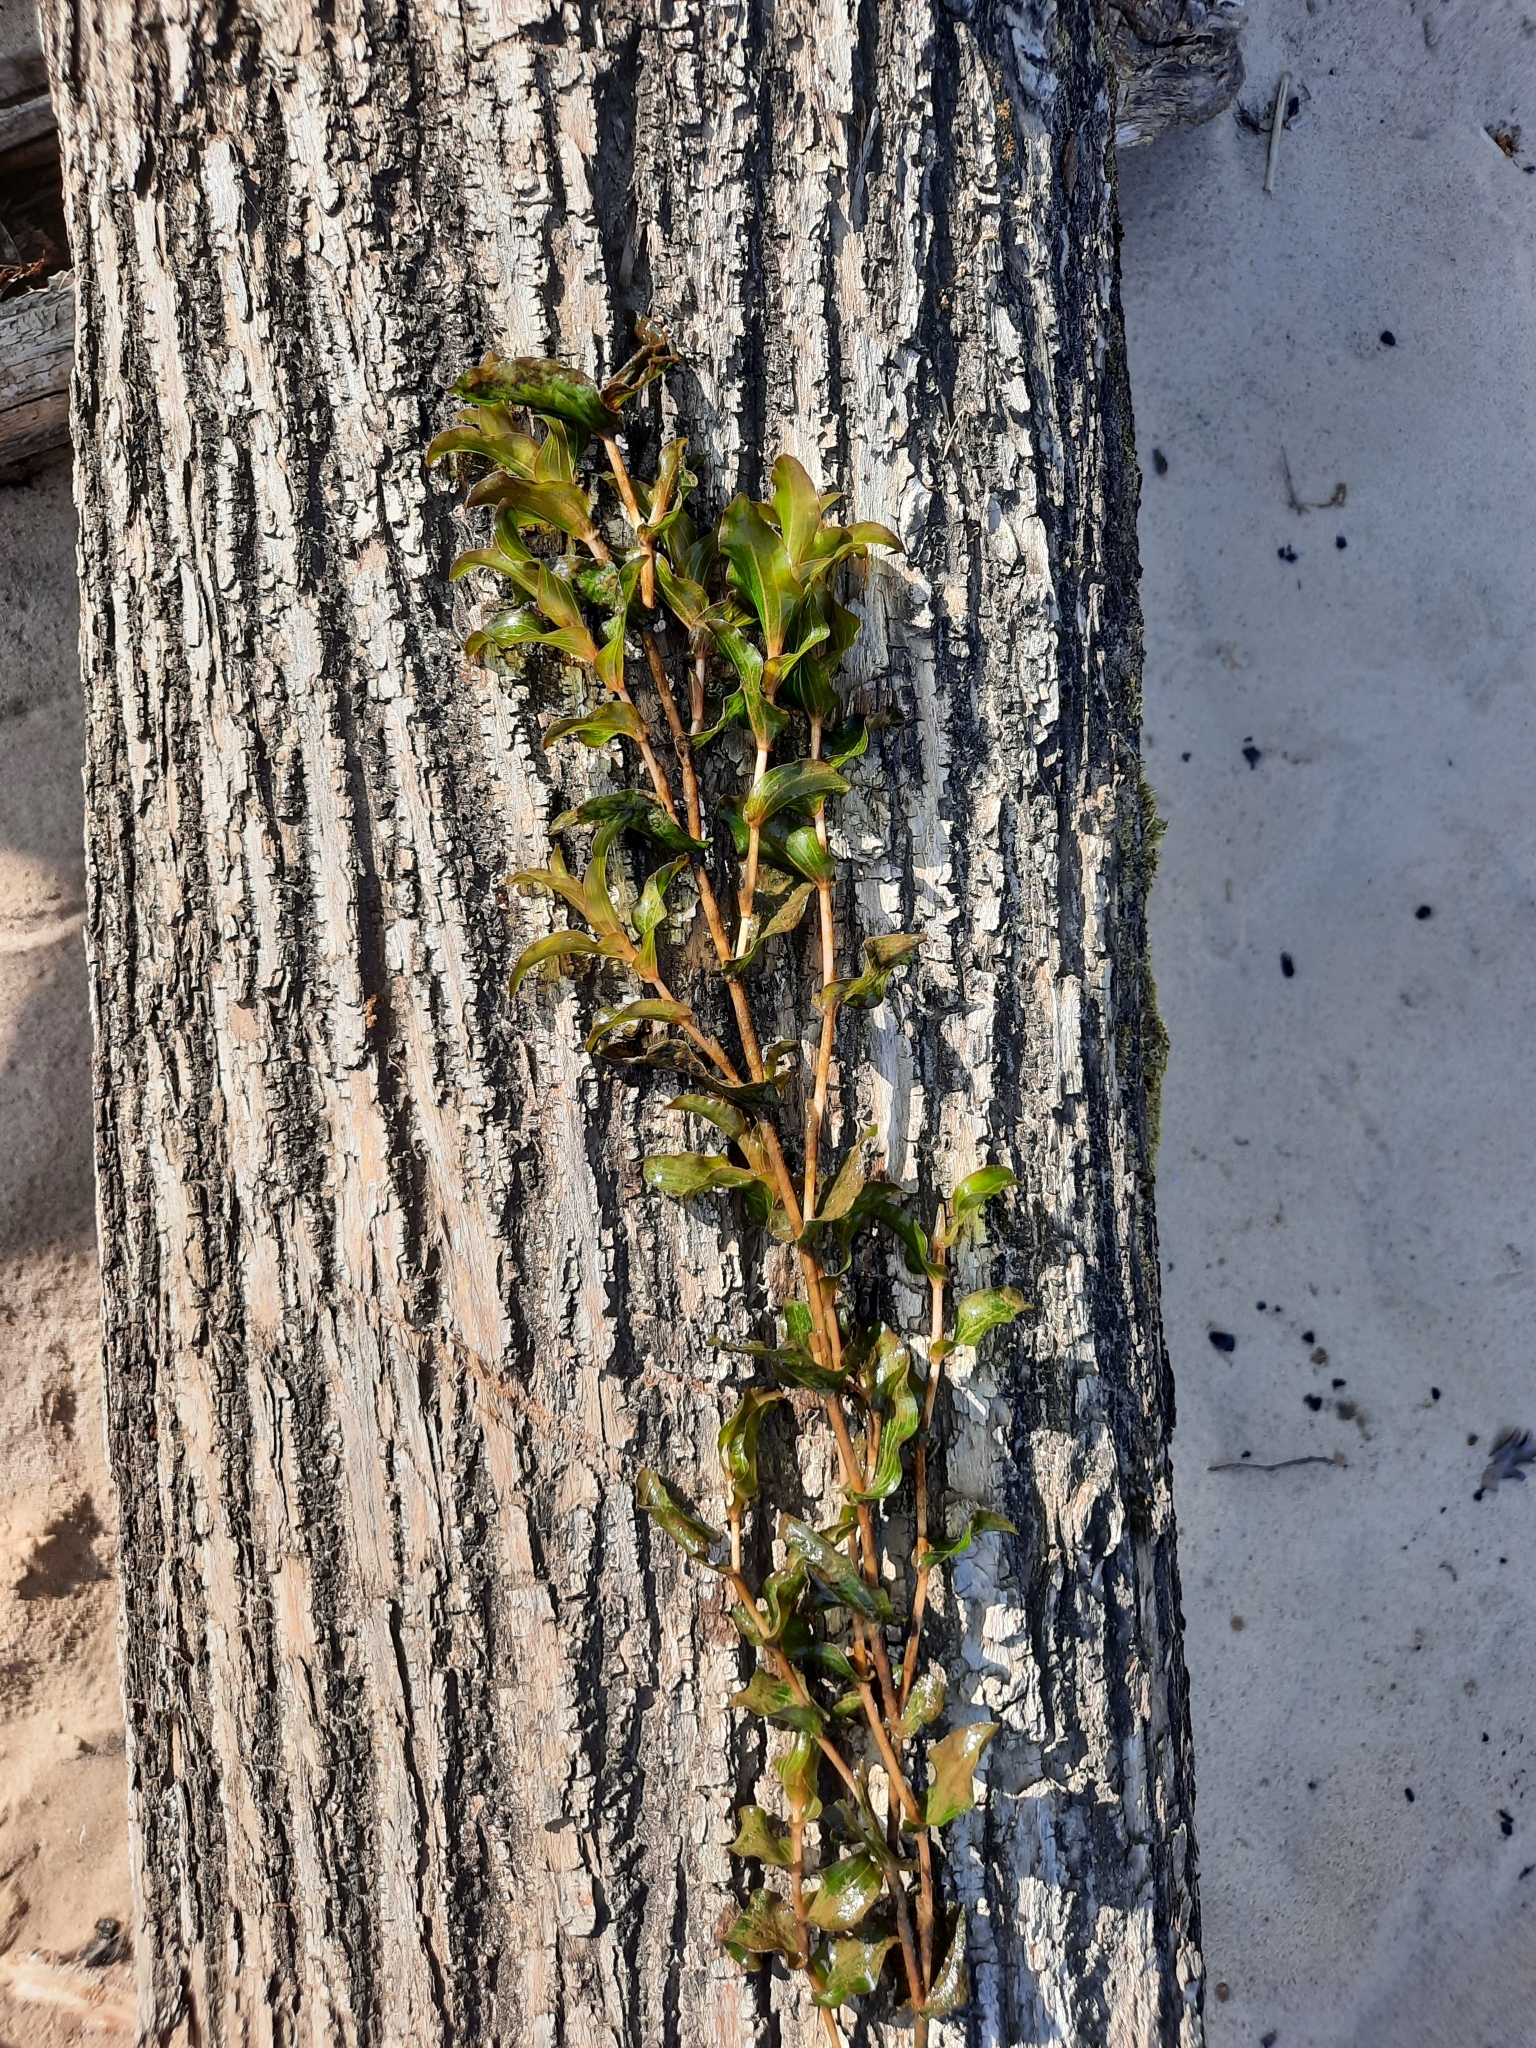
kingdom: Plantae
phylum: Tracheophyta
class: Liliopsida
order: Alismatales
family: Potamogetonaceae
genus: Potamogeton
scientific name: Potamogeton perfoliatus
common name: Perfoliate pondweed
